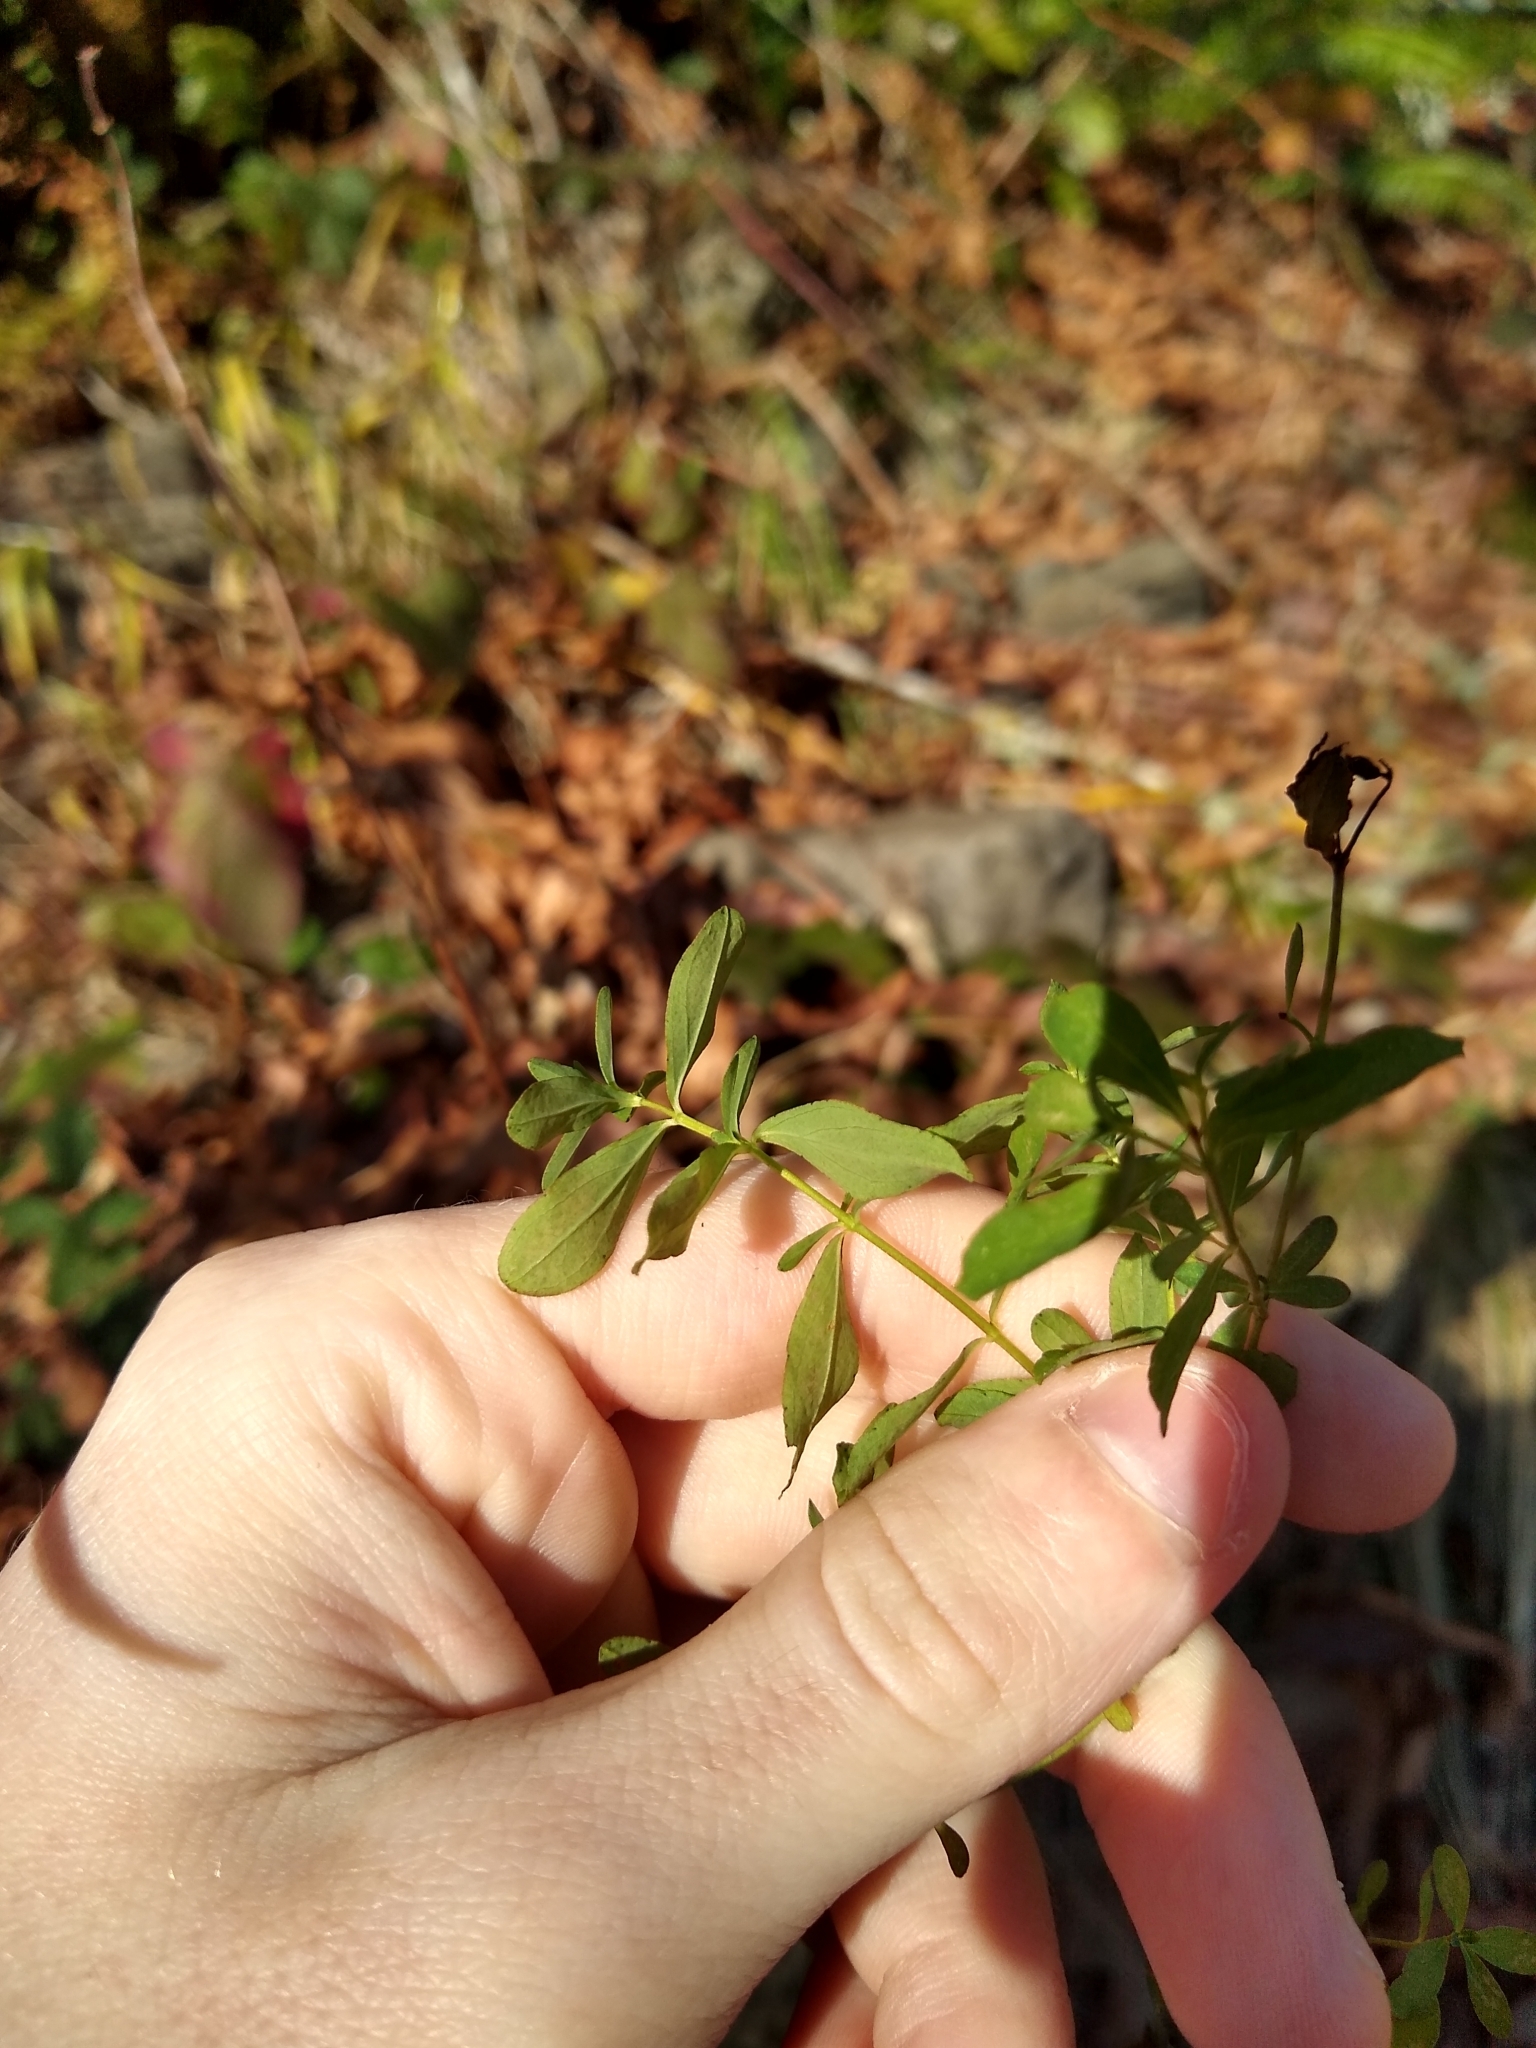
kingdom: Plantae
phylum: Tracheophyta
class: Magnoliopsida
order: Malpighiales
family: Hypericaceae
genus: Hypericum
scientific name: Hypericum perforatum
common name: Common st. johnswort
